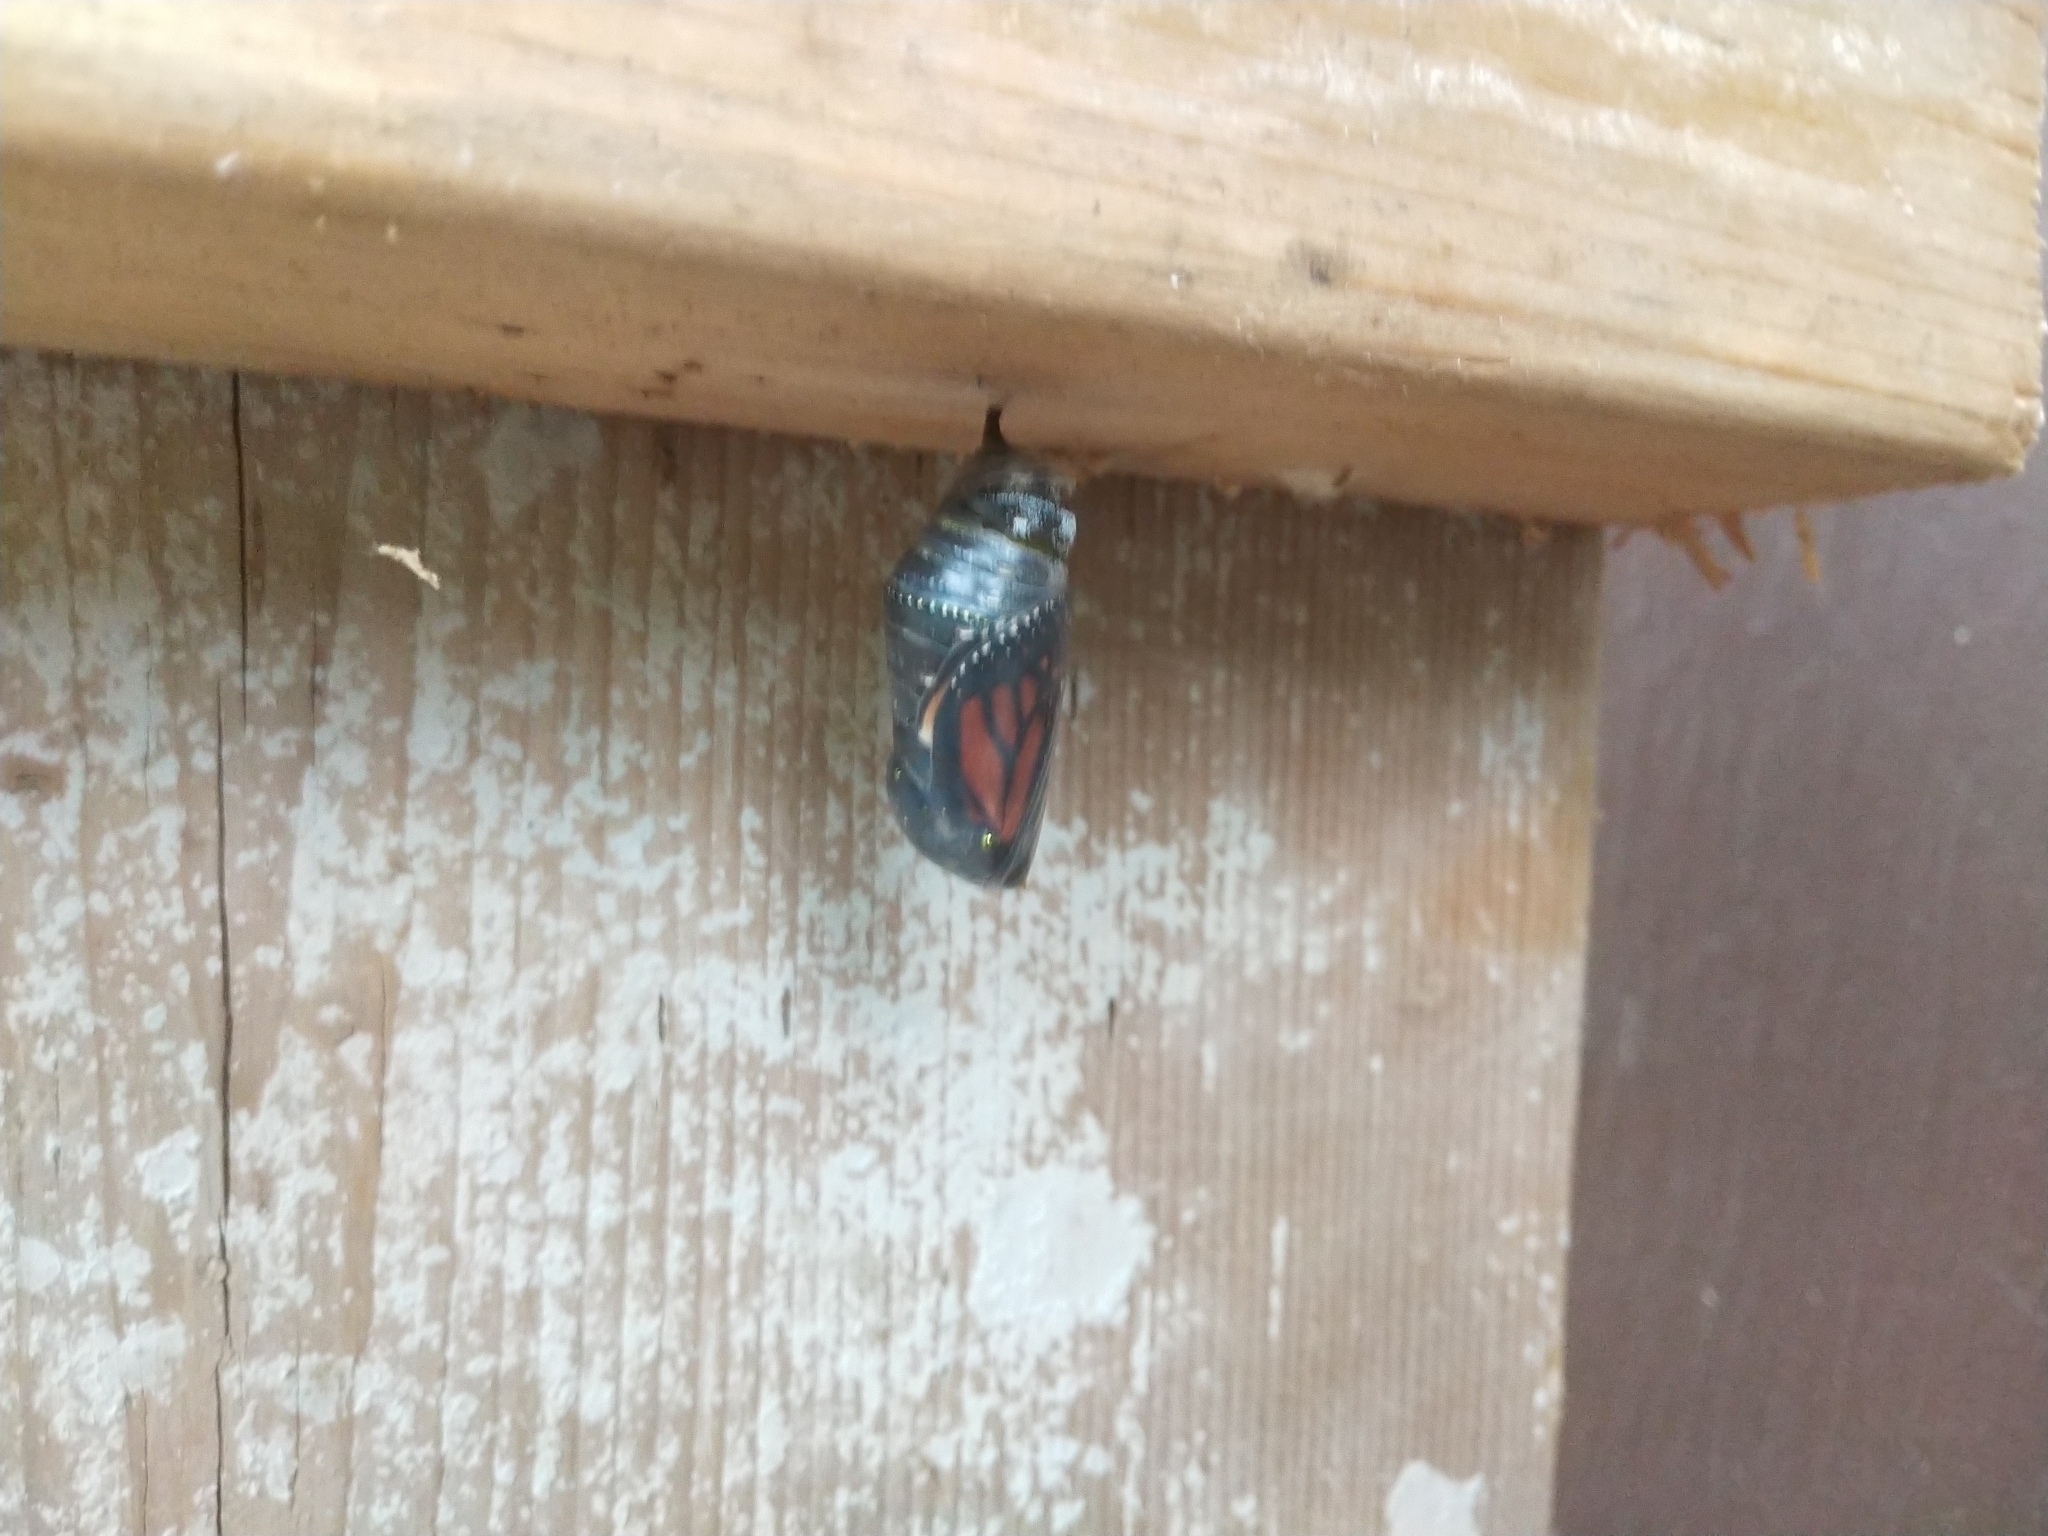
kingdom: Animalia
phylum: Arthropoda
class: Insecta
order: Lepidoptera
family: Nymphalidae
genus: Danaus
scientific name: Danaus plexippus
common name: Monarch
